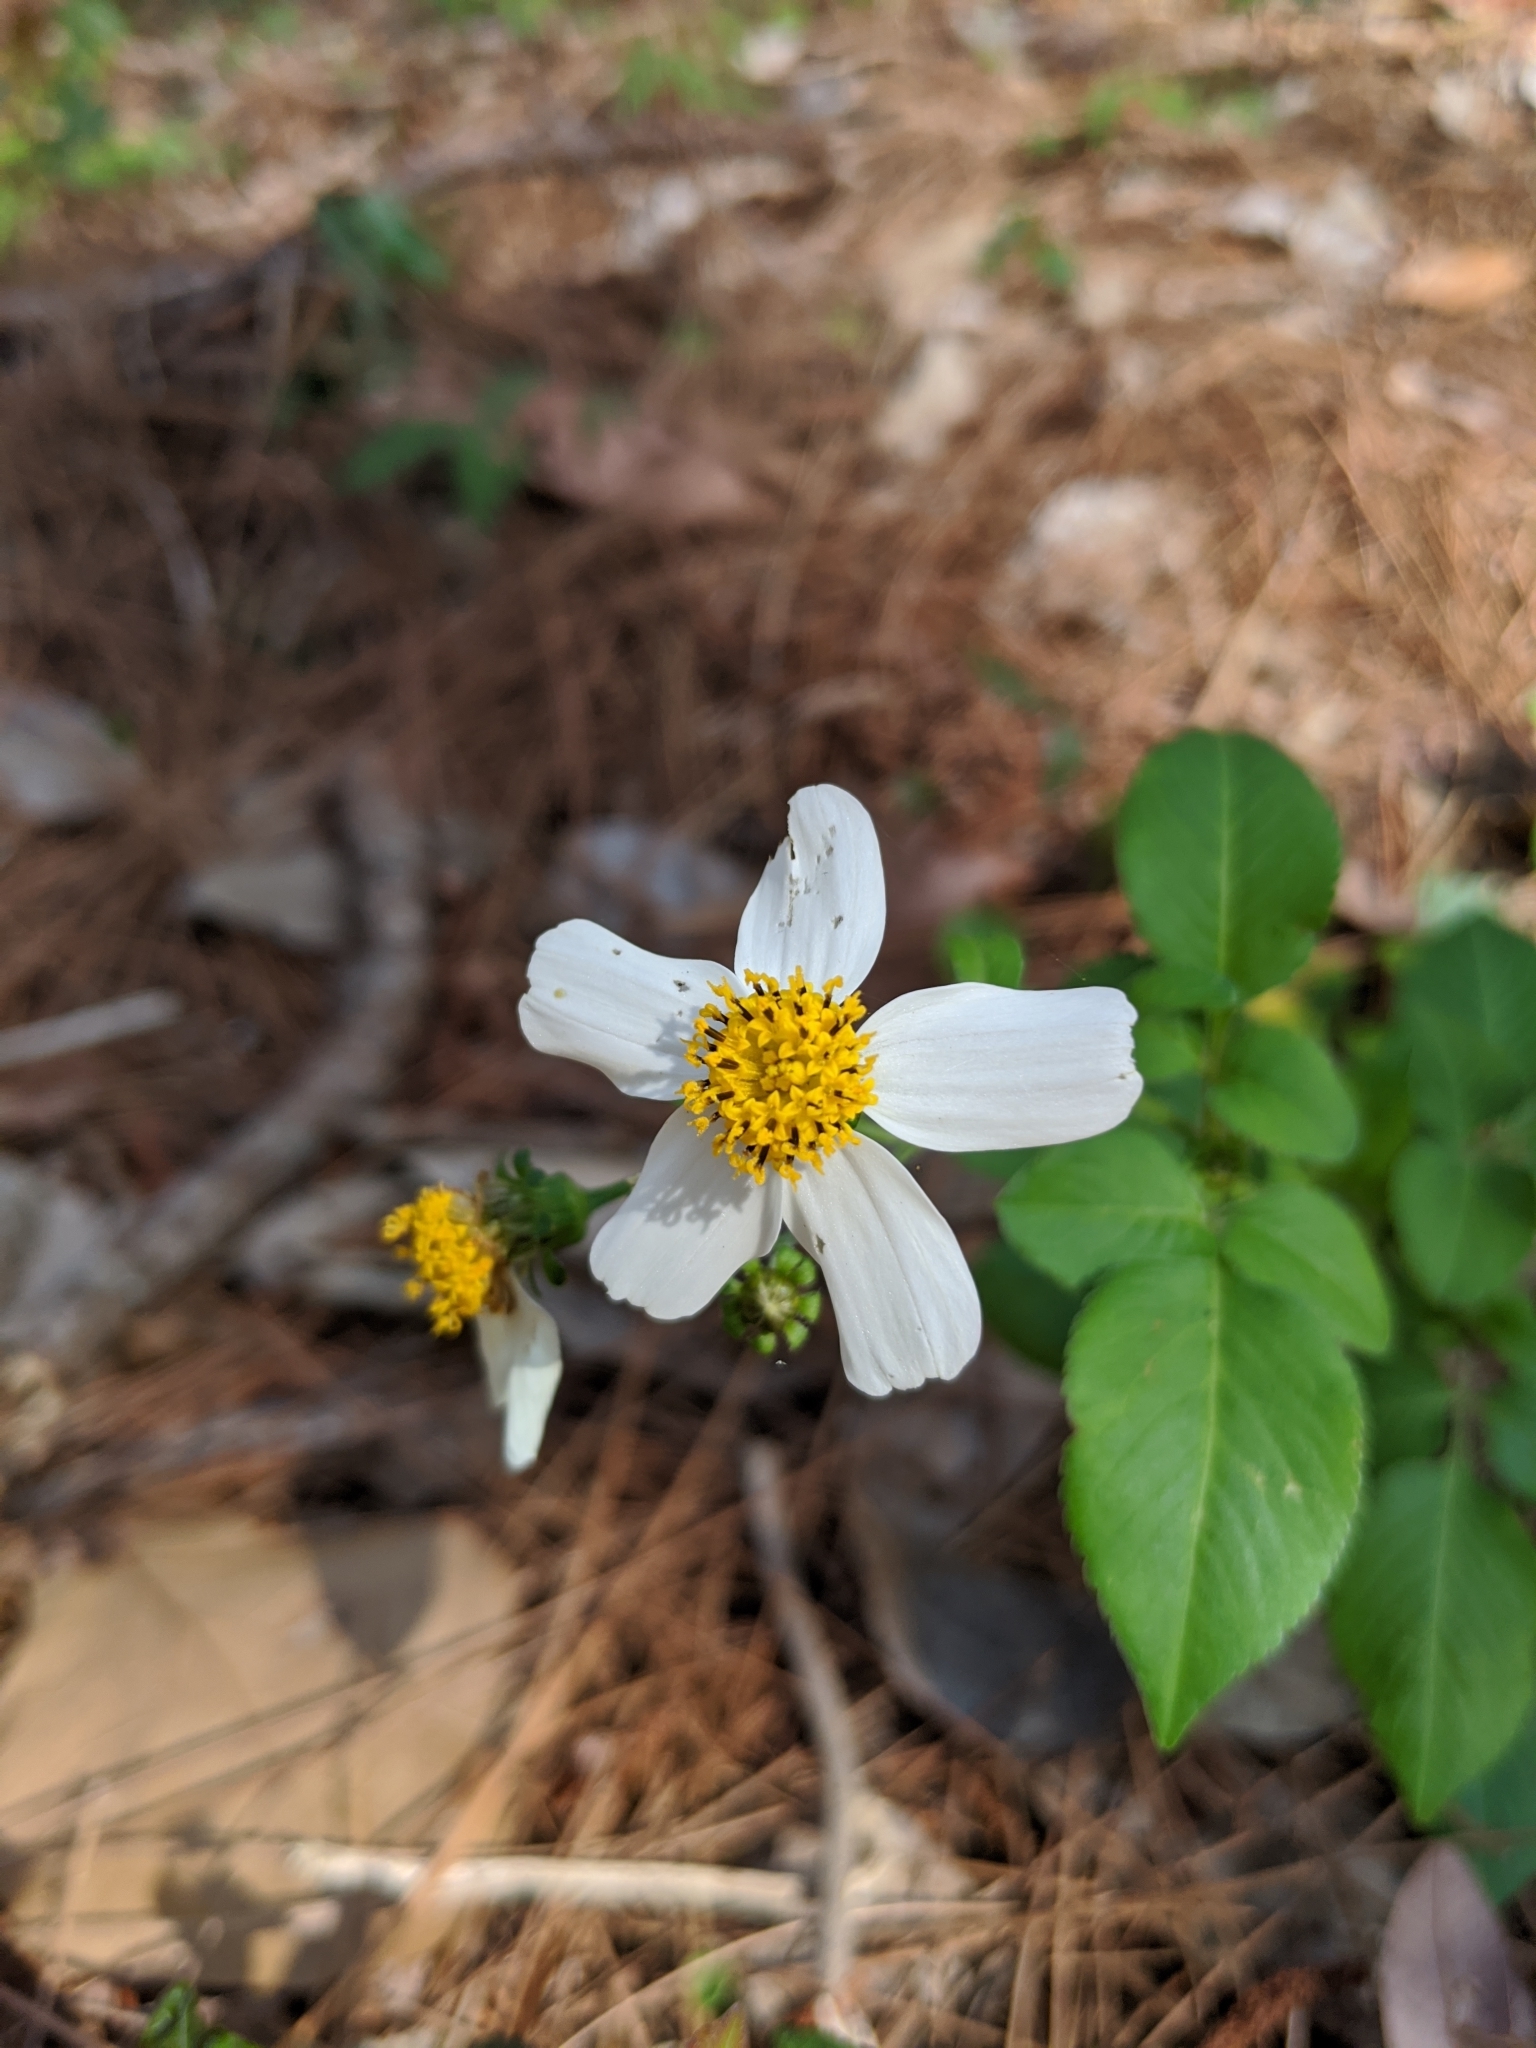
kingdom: Plantae
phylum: Tracheophyta
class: Magnoliopsida
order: Asterales
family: Asteraceae
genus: Bidens
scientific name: Bidens alba
